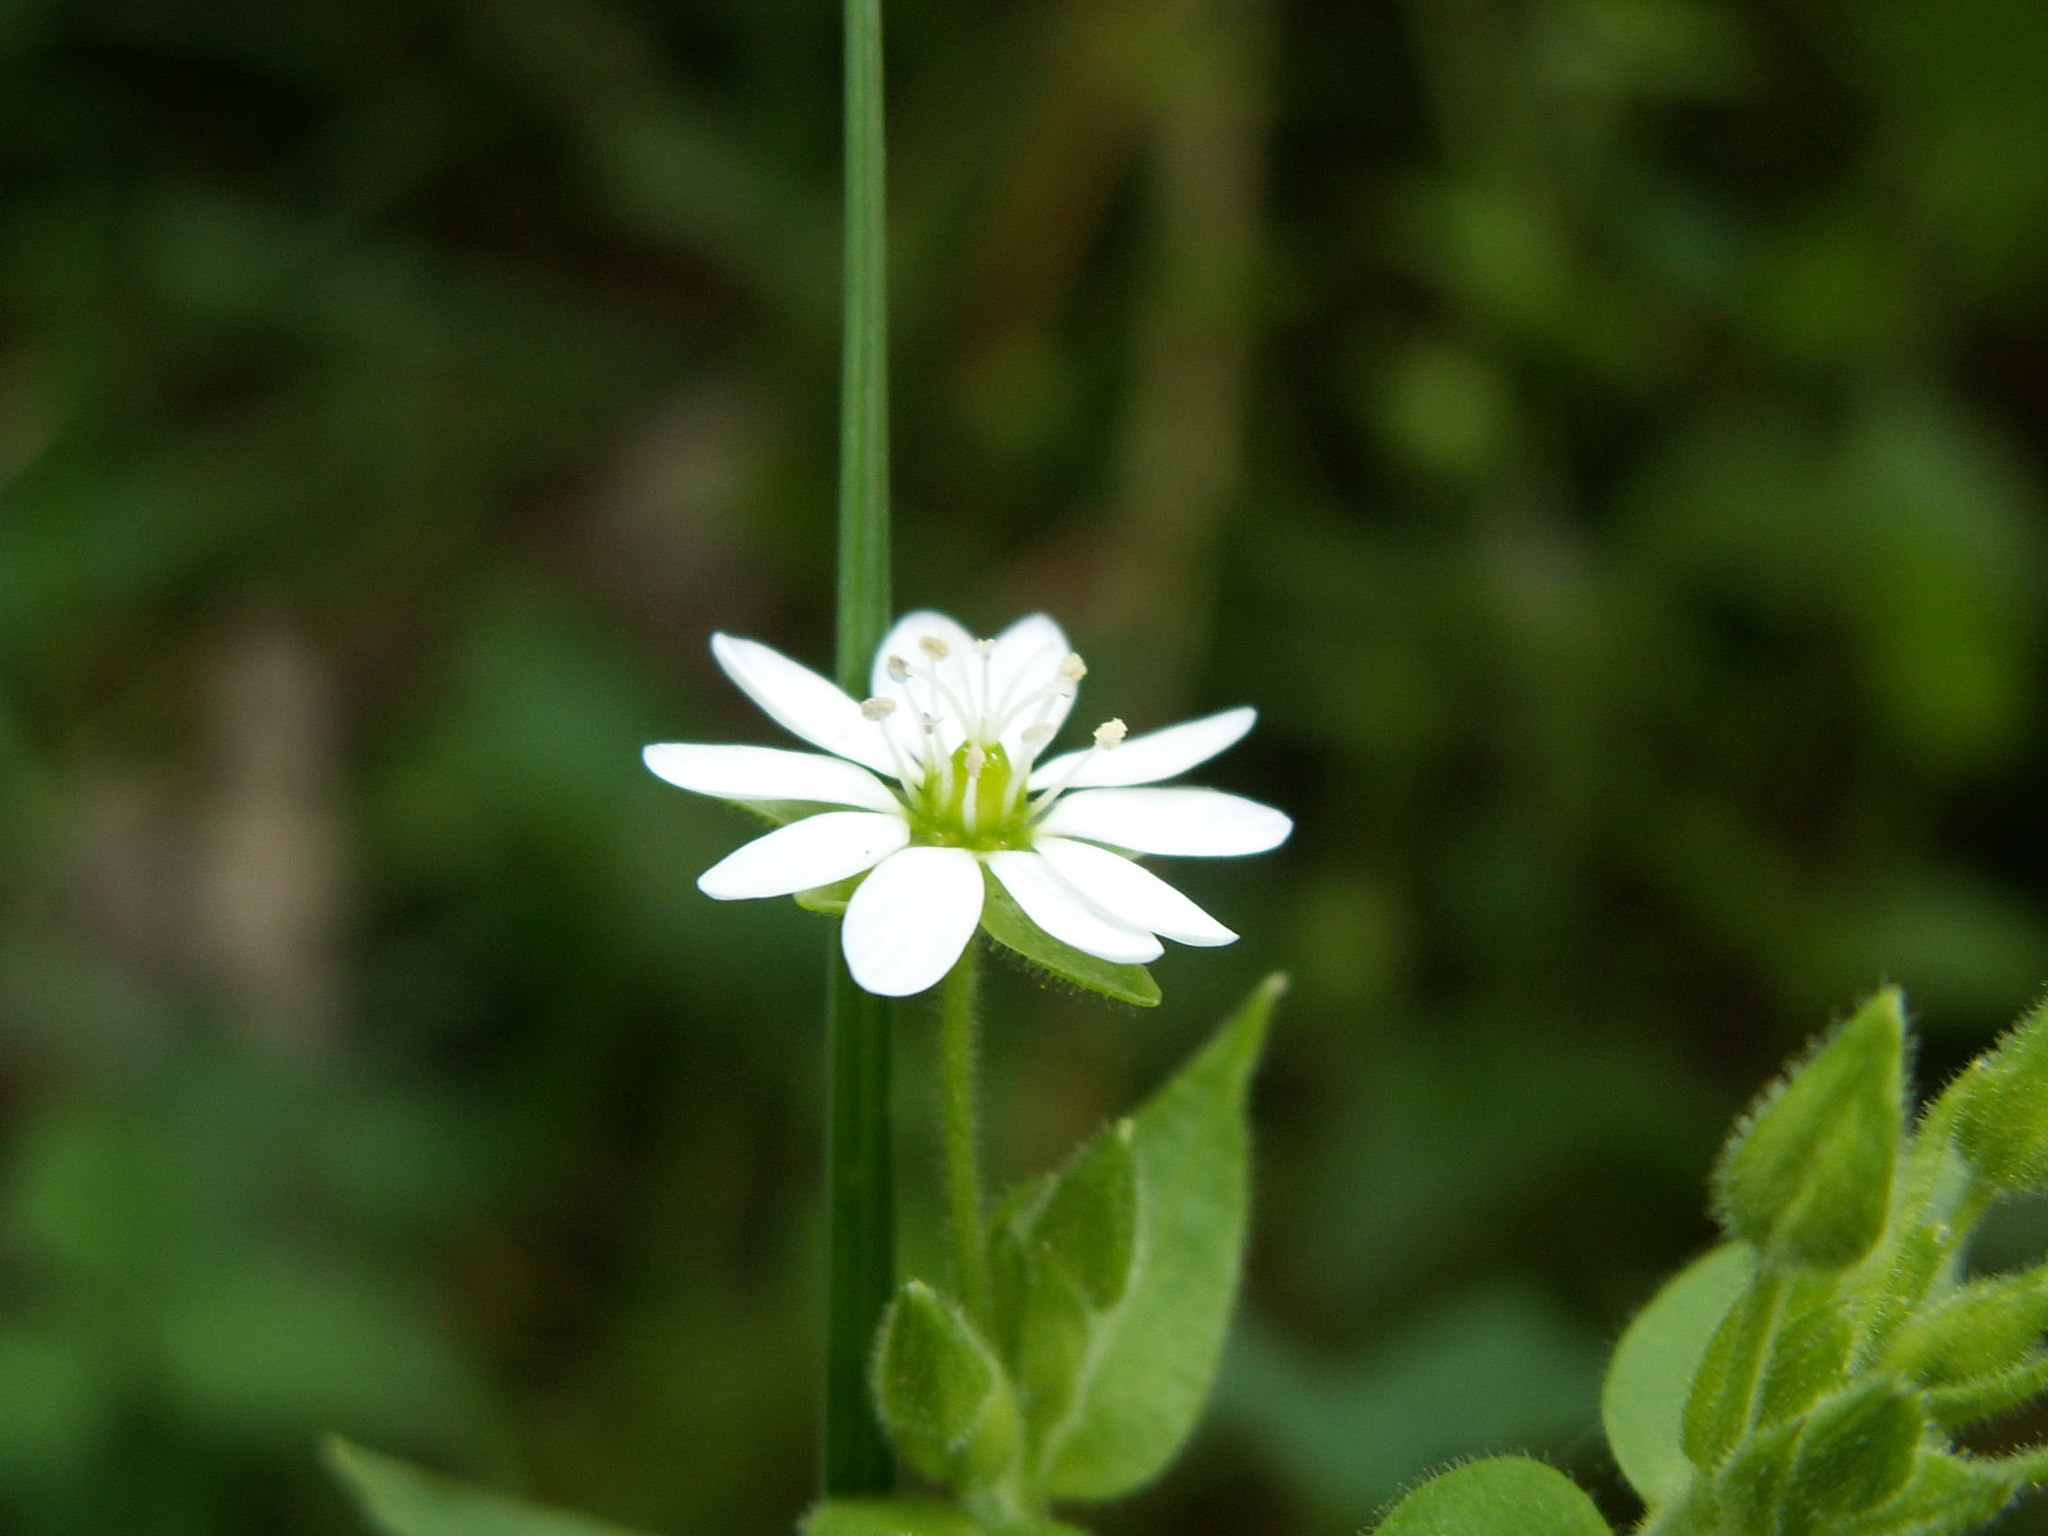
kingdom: Plantae
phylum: Tracheophyta
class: Magnoliopsida
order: Caryophyllales
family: Caryophyllaceae
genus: Stellaria
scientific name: Stellaria aquatica
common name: Water chickweed
